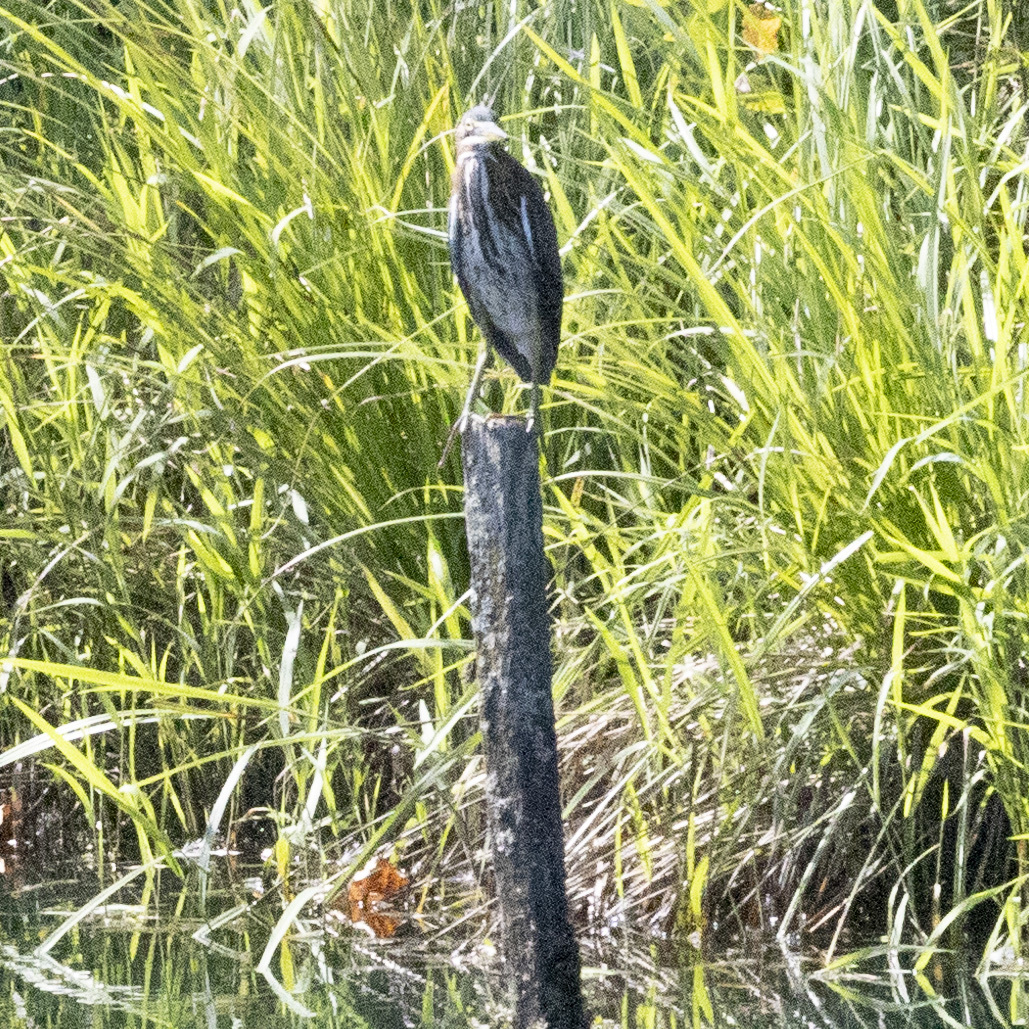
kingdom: Animalia
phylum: Chordata
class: Aves
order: Pelecaniformes
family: Ardeidae
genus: Butorides
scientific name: Butorides virescens
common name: Green heron
